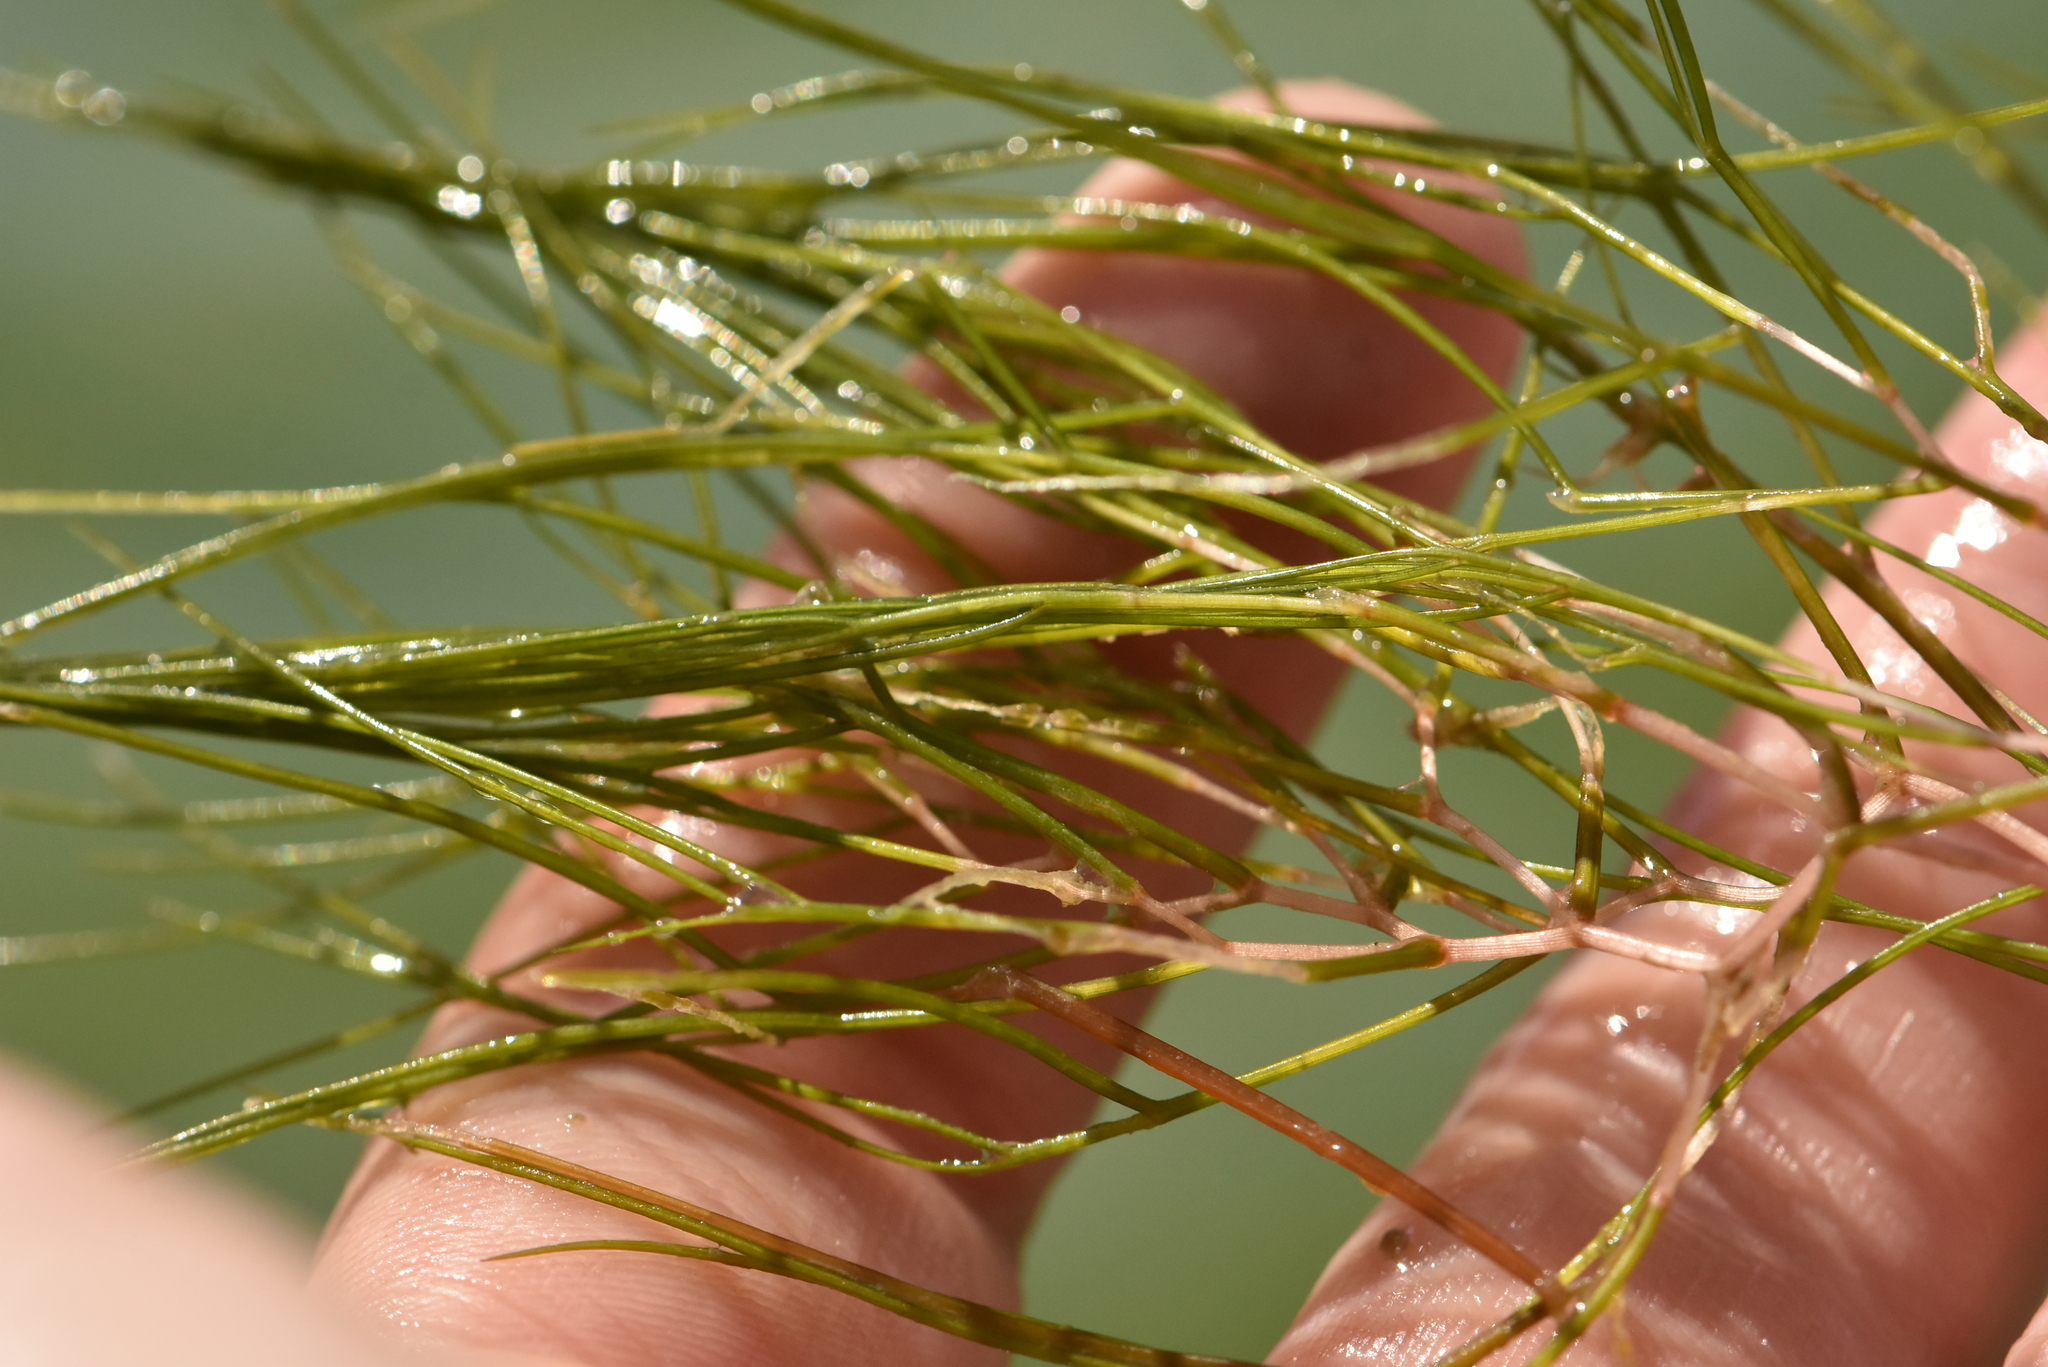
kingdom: Plantae
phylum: Tracheophyta
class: Liliopsida
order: Alismatales
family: Potamogetonaceae
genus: Stuckenia
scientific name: Stuckenia pectinata
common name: Sago pondweed
